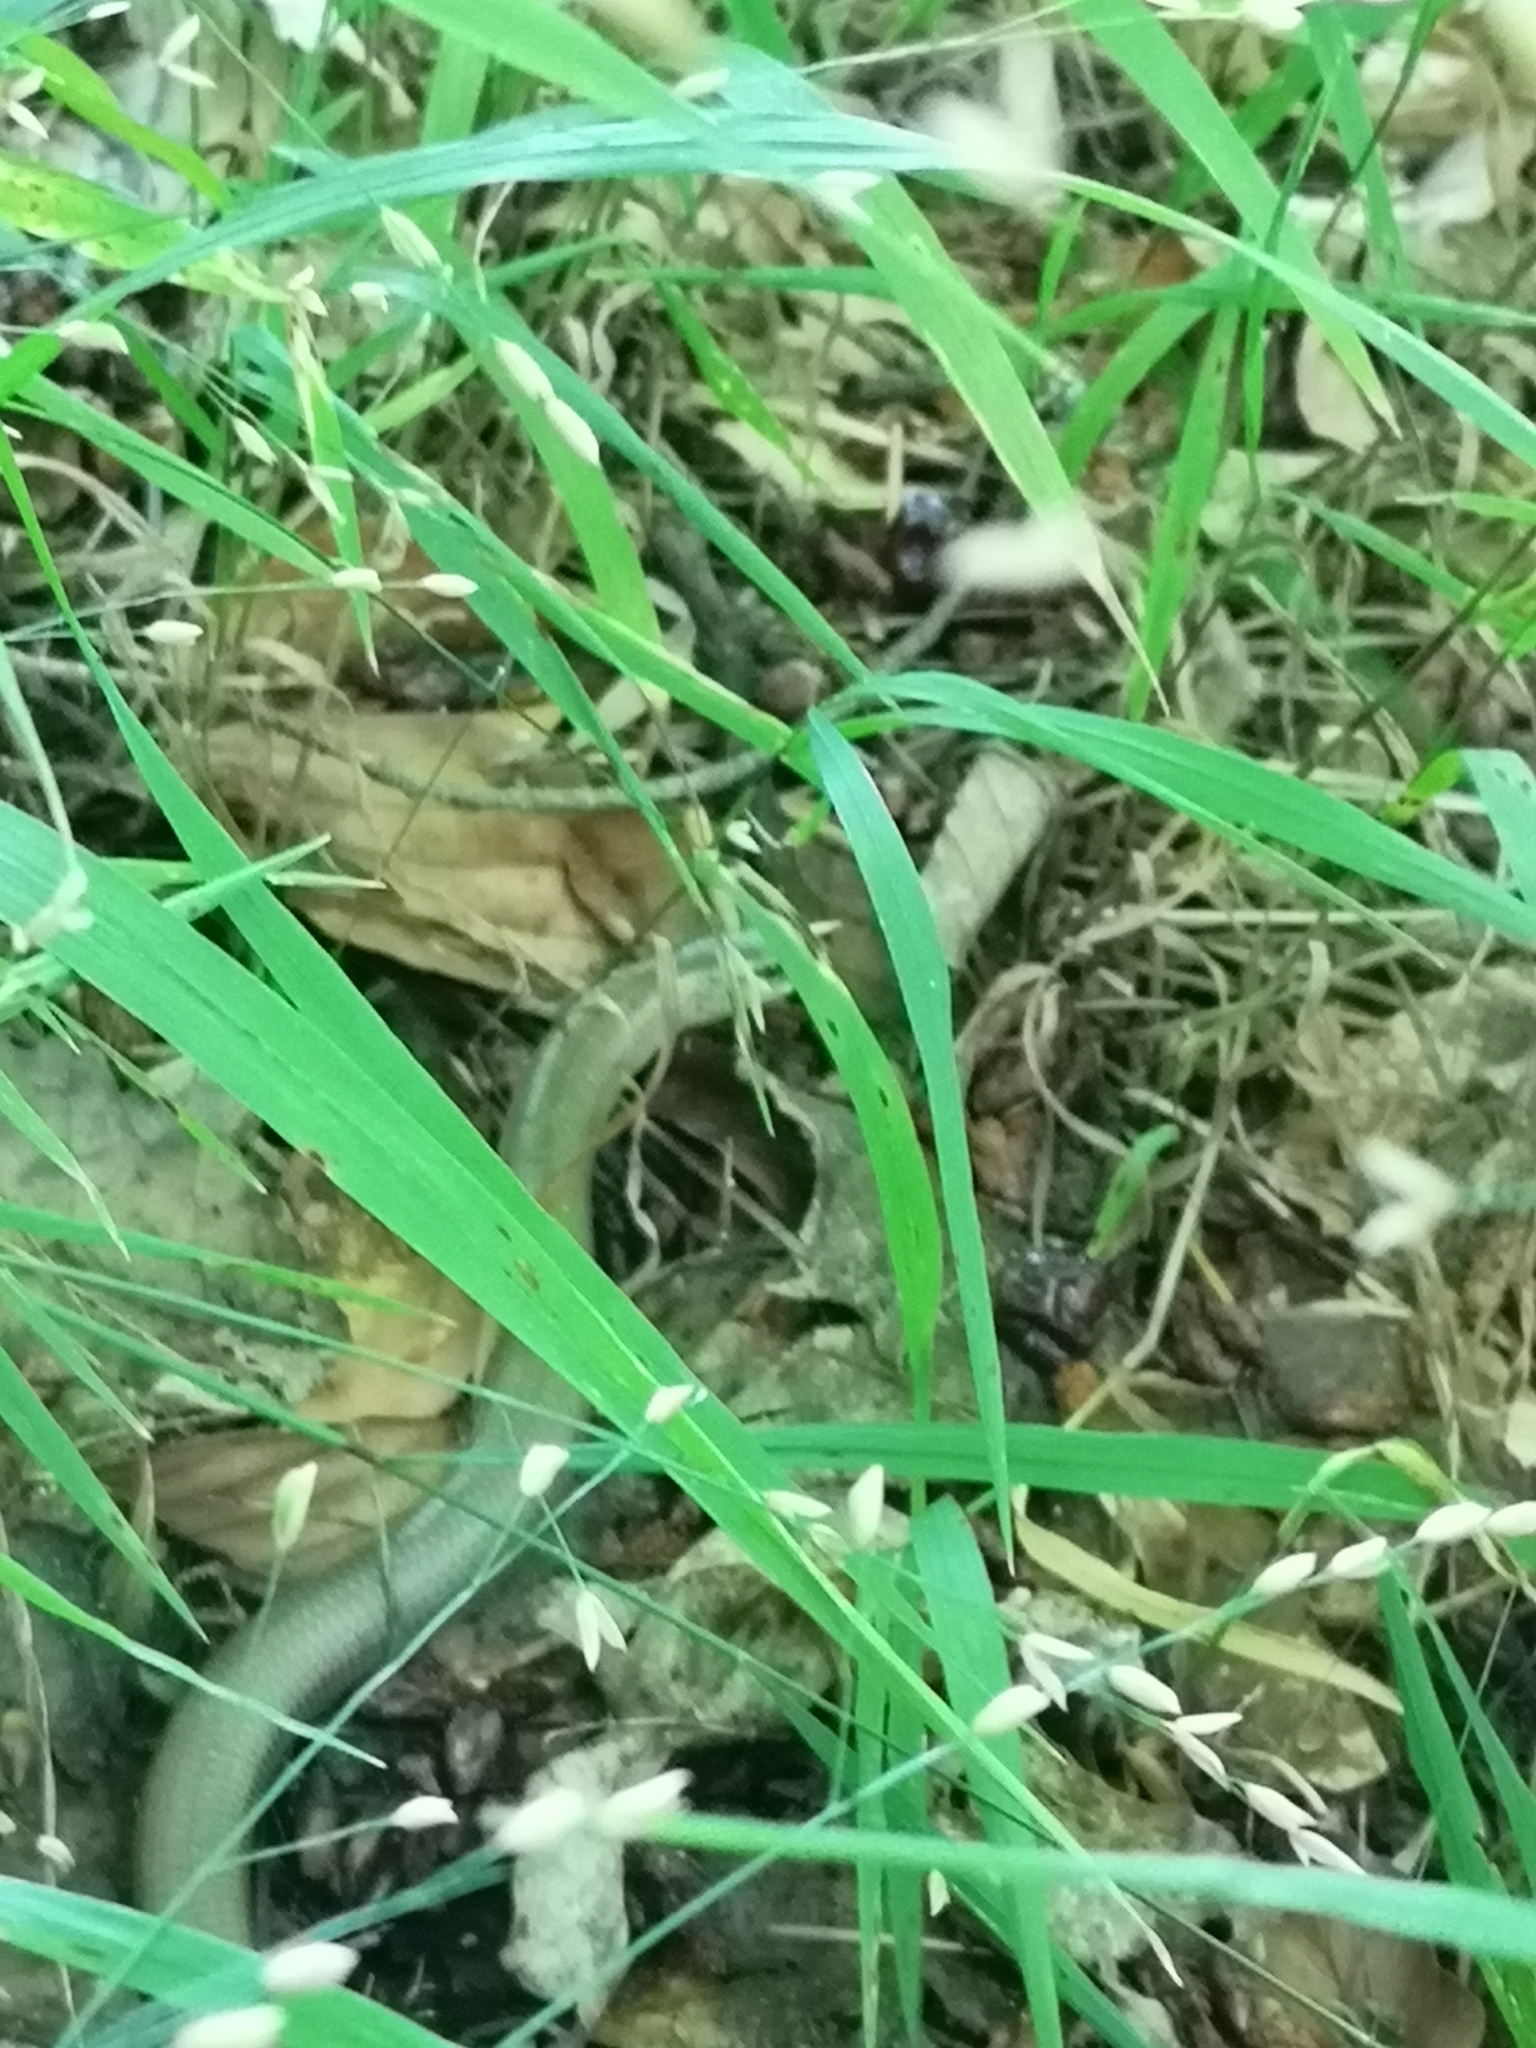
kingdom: Animalia
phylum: Chordata
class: Squamata
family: Anguidae
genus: Anguis
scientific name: Anguis fragilis
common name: Slow worm
